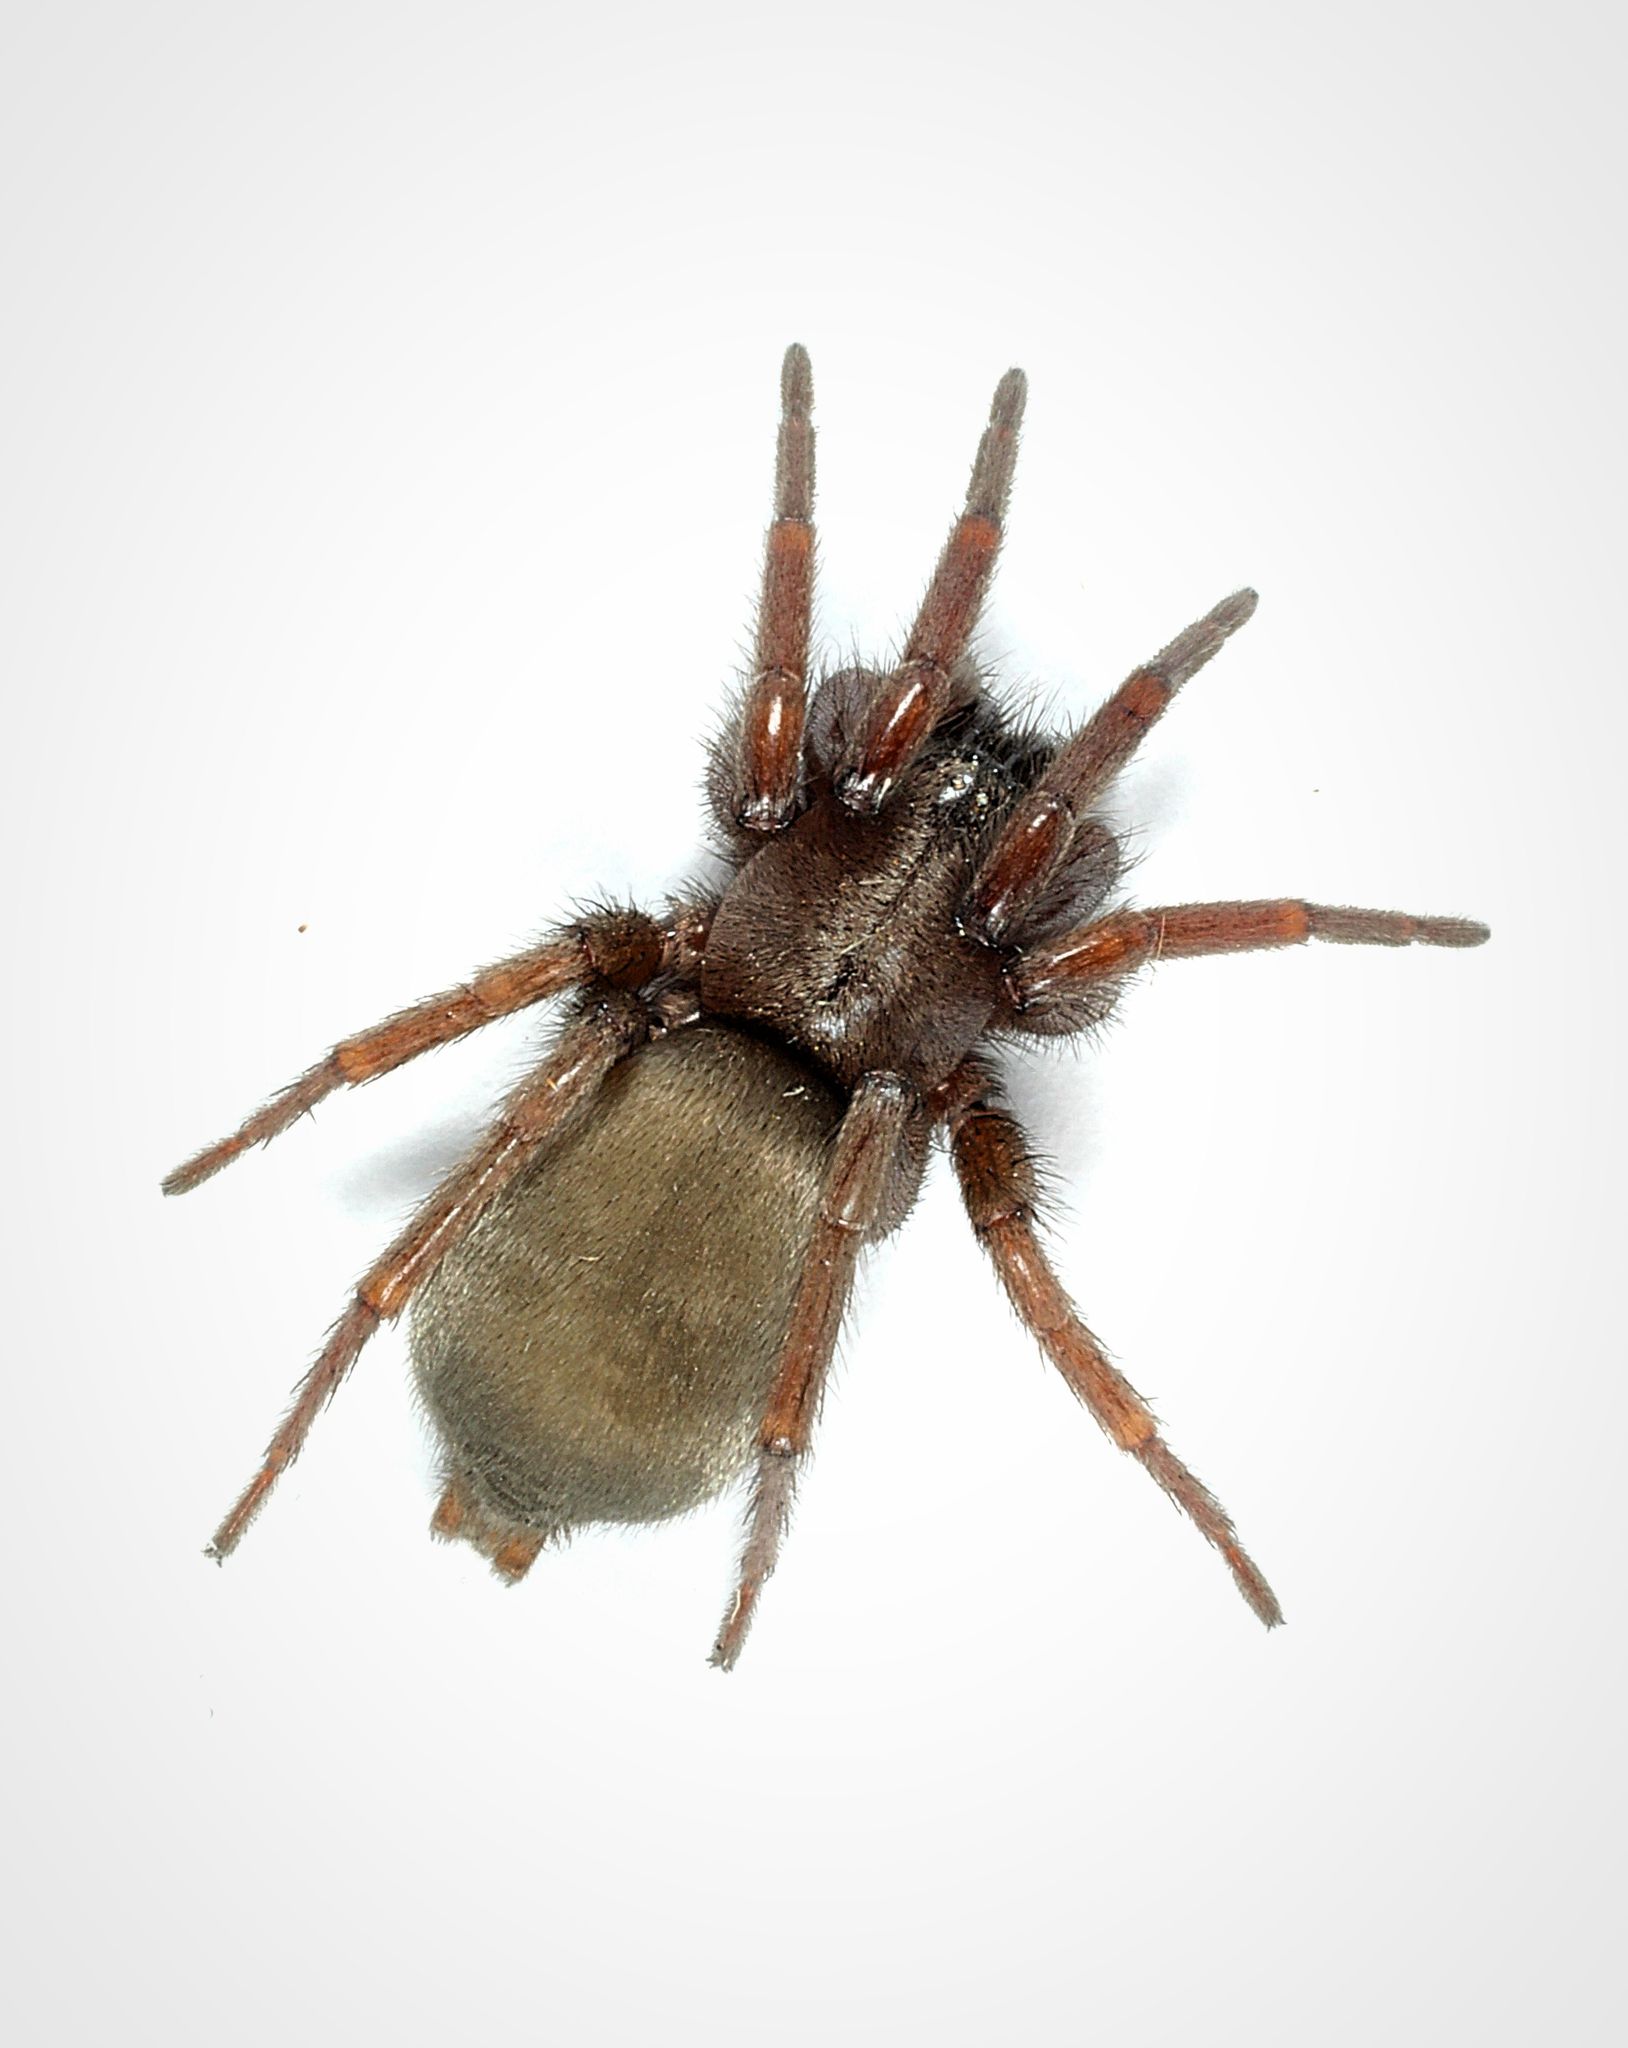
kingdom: Animalia
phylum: Arthropoda
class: Arachnida
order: Araneae
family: Gnaphosidae
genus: Scotophaeus
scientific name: Scotophaeus blackwalli
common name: Mouse spider
